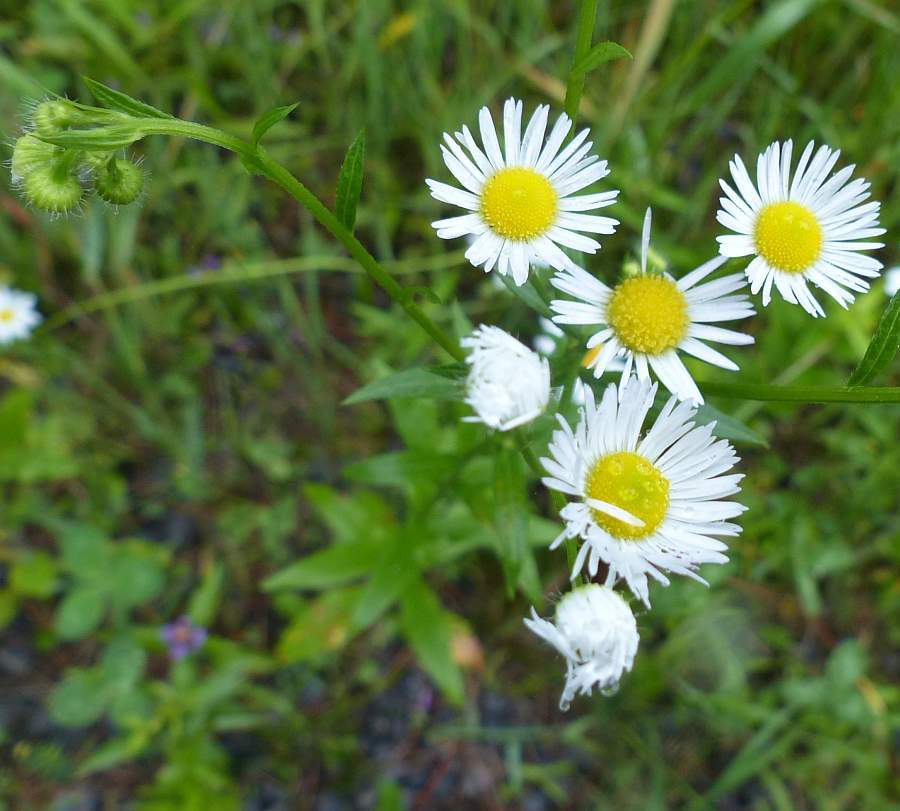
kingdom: Plantae
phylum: Tracheophyta
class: Magnoliopsida
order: Asterales
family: Asteraceae
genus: Erigeron
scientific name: Erigeron strigosus
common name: Common eastern fleabane
